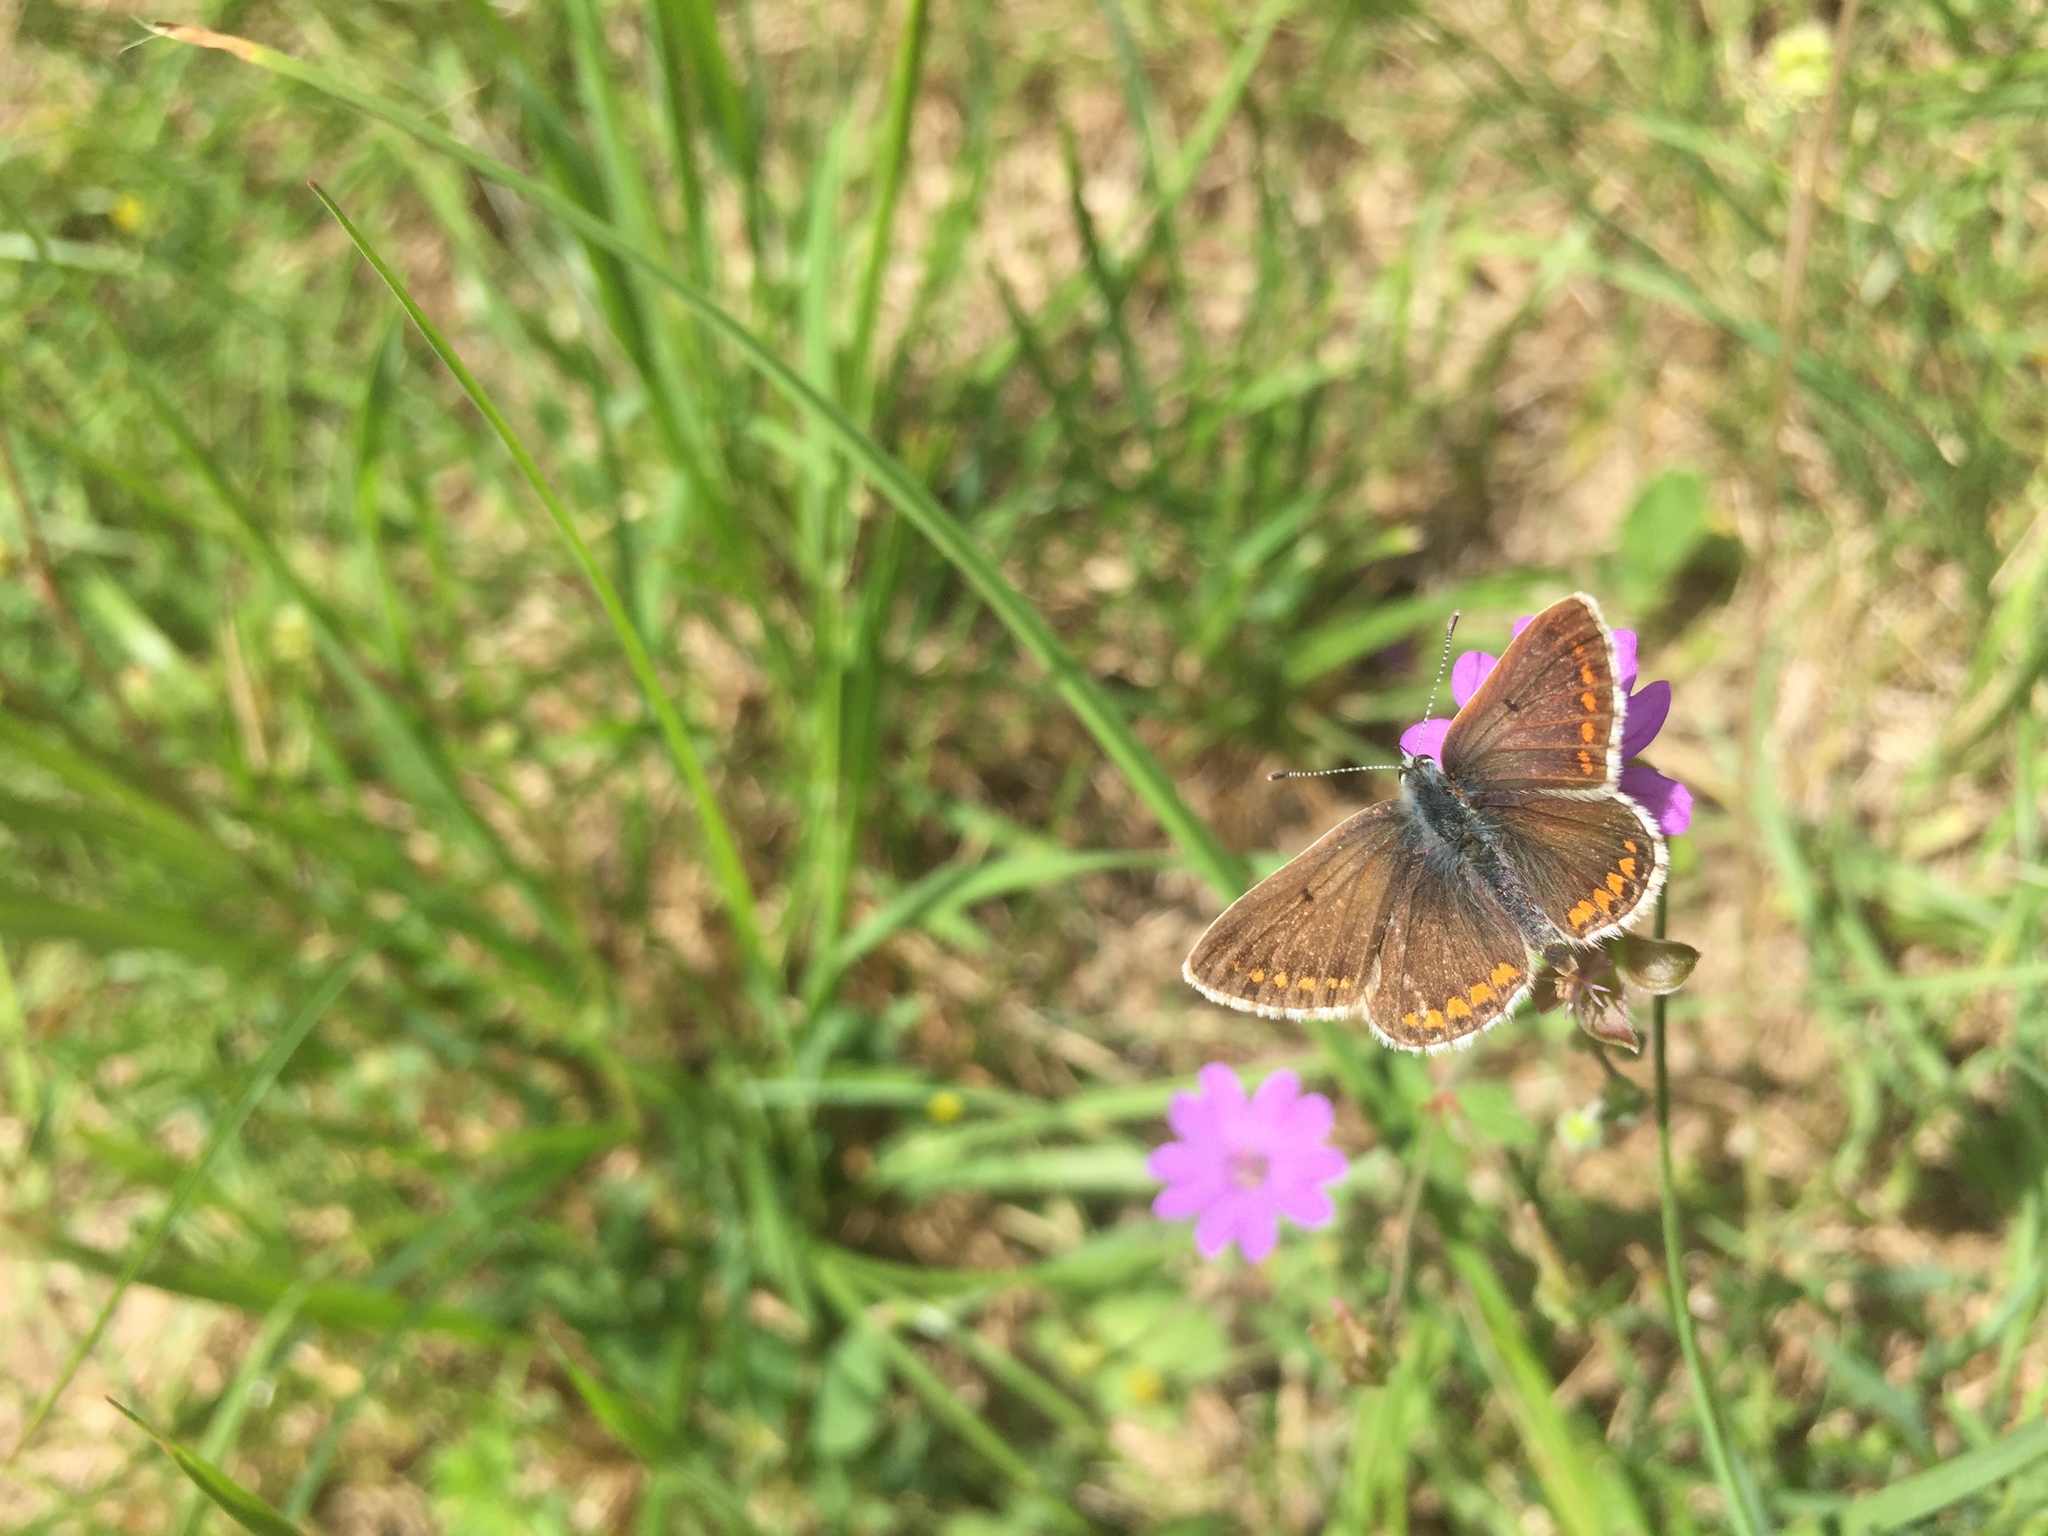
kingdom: Animalia
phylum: Arthropoda
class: Insecta
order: Lepidoptera
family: Lycaenidae
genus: Aricia
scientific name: Aricia agestis
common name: Brown argus
